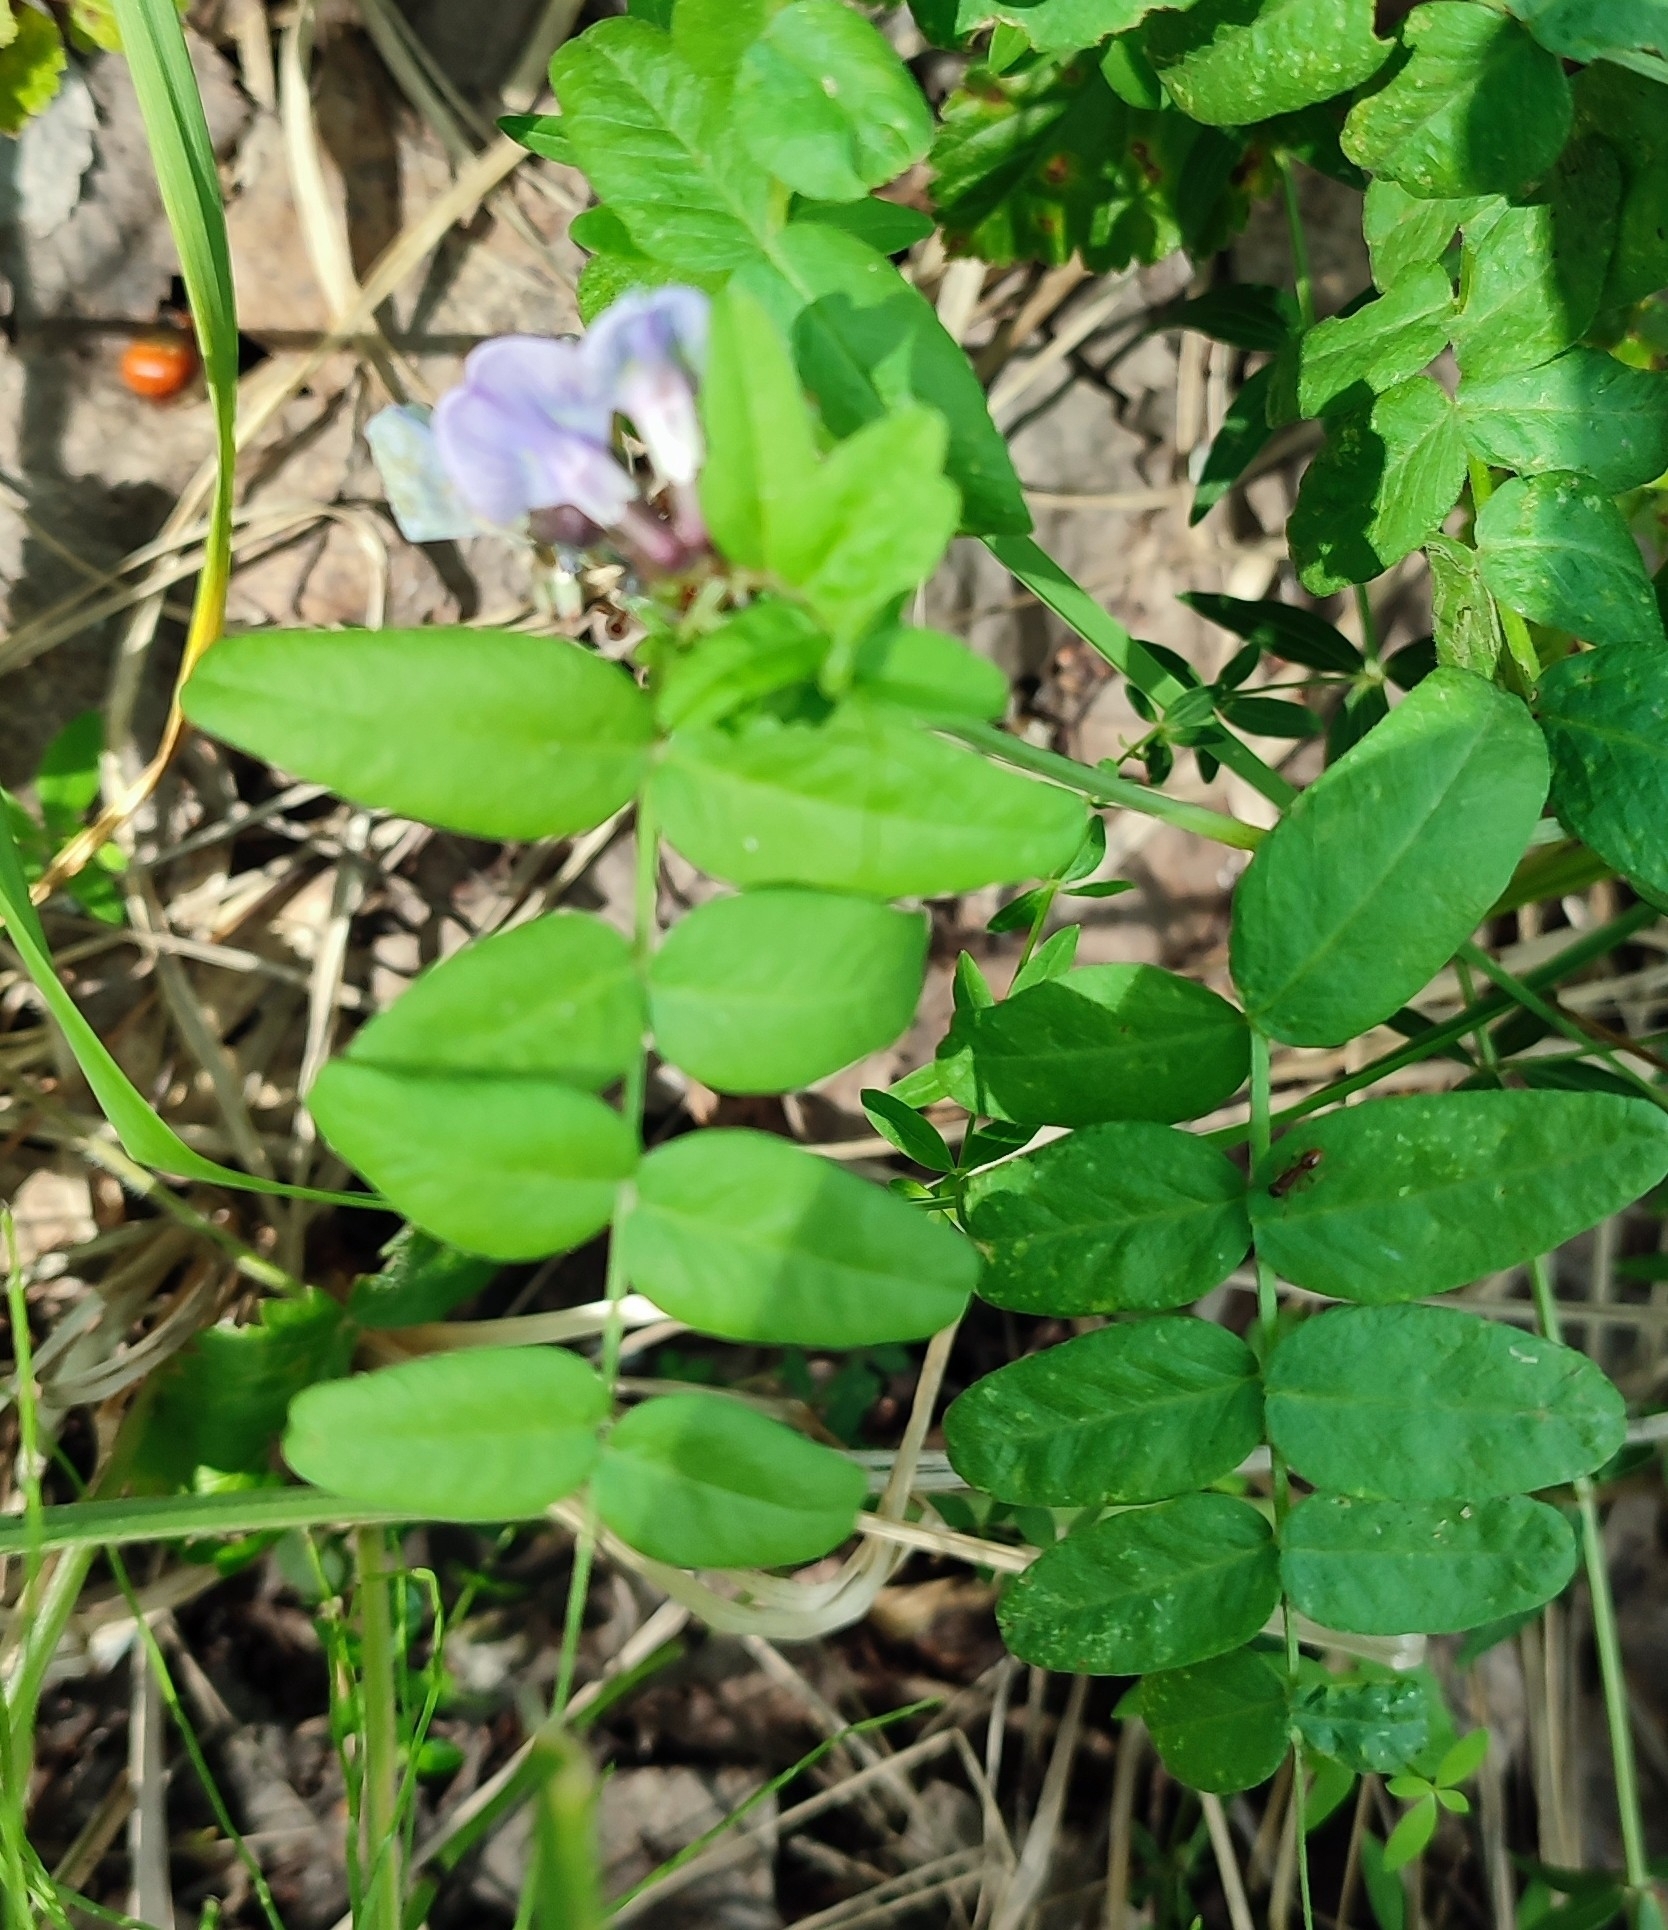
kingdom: Plantae
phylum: Tracheophyta
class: Magnoliopsida
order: Fabales
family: Fabaceae
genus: Vicia
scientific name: Vicia sepium
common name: Bush vetch
